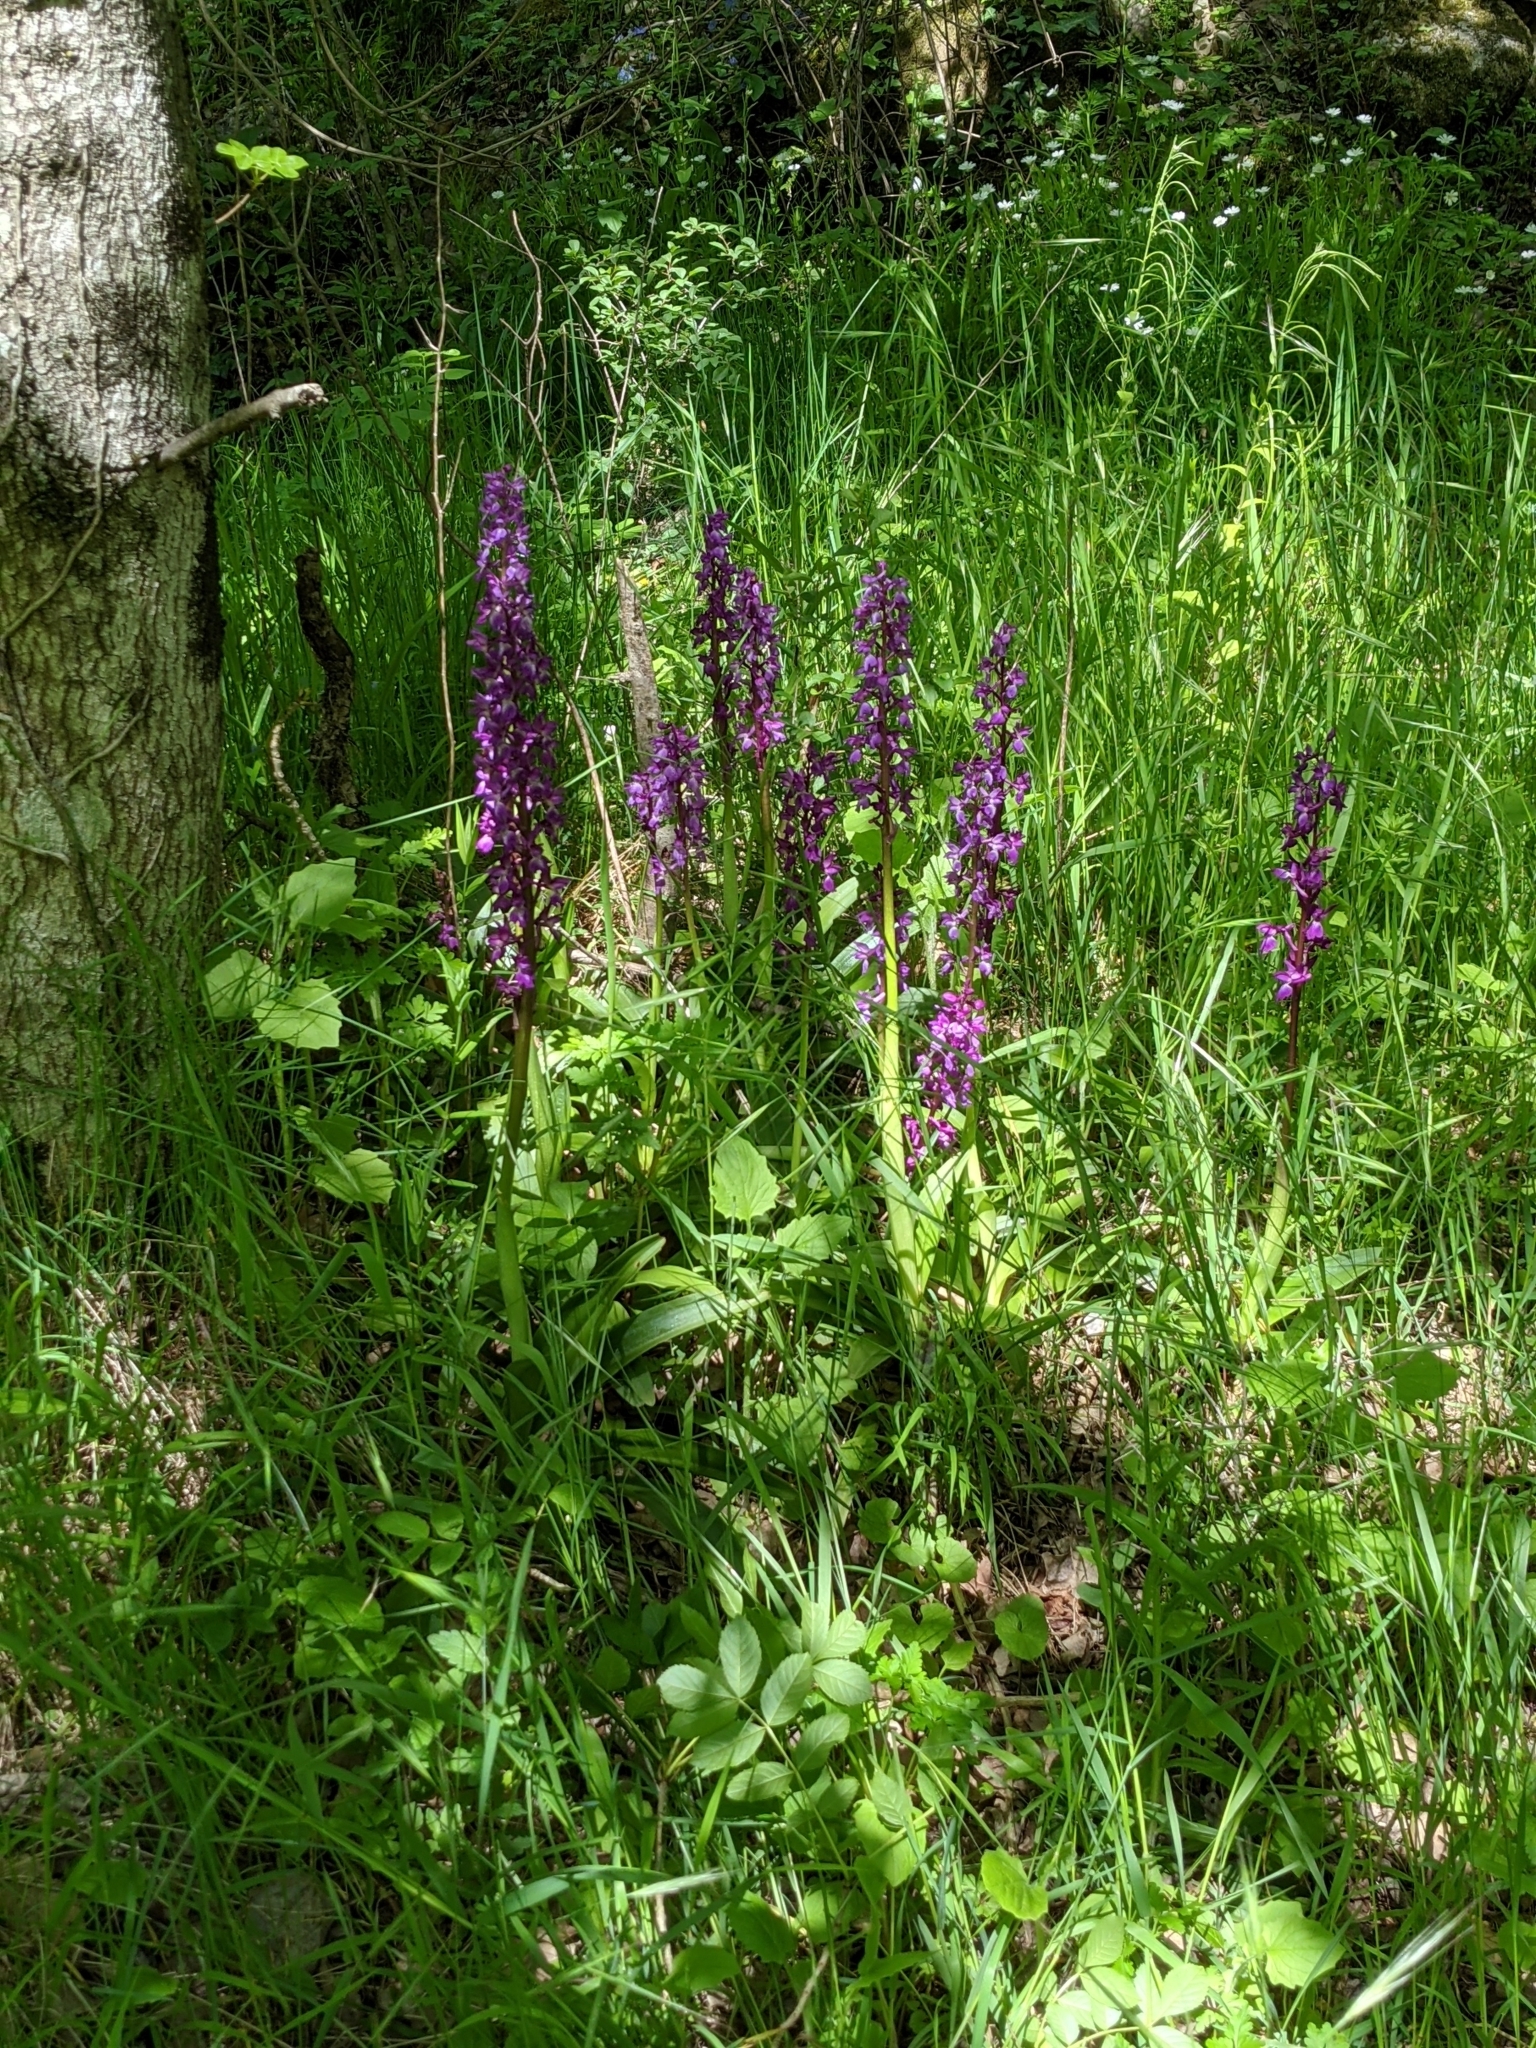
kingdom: Plantae
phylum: Tracheophyta
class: Liliopsida
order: Asparagales
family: Orchidaceae
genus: Orchis
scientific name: Orchis mascula
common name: Early-purple orchid
